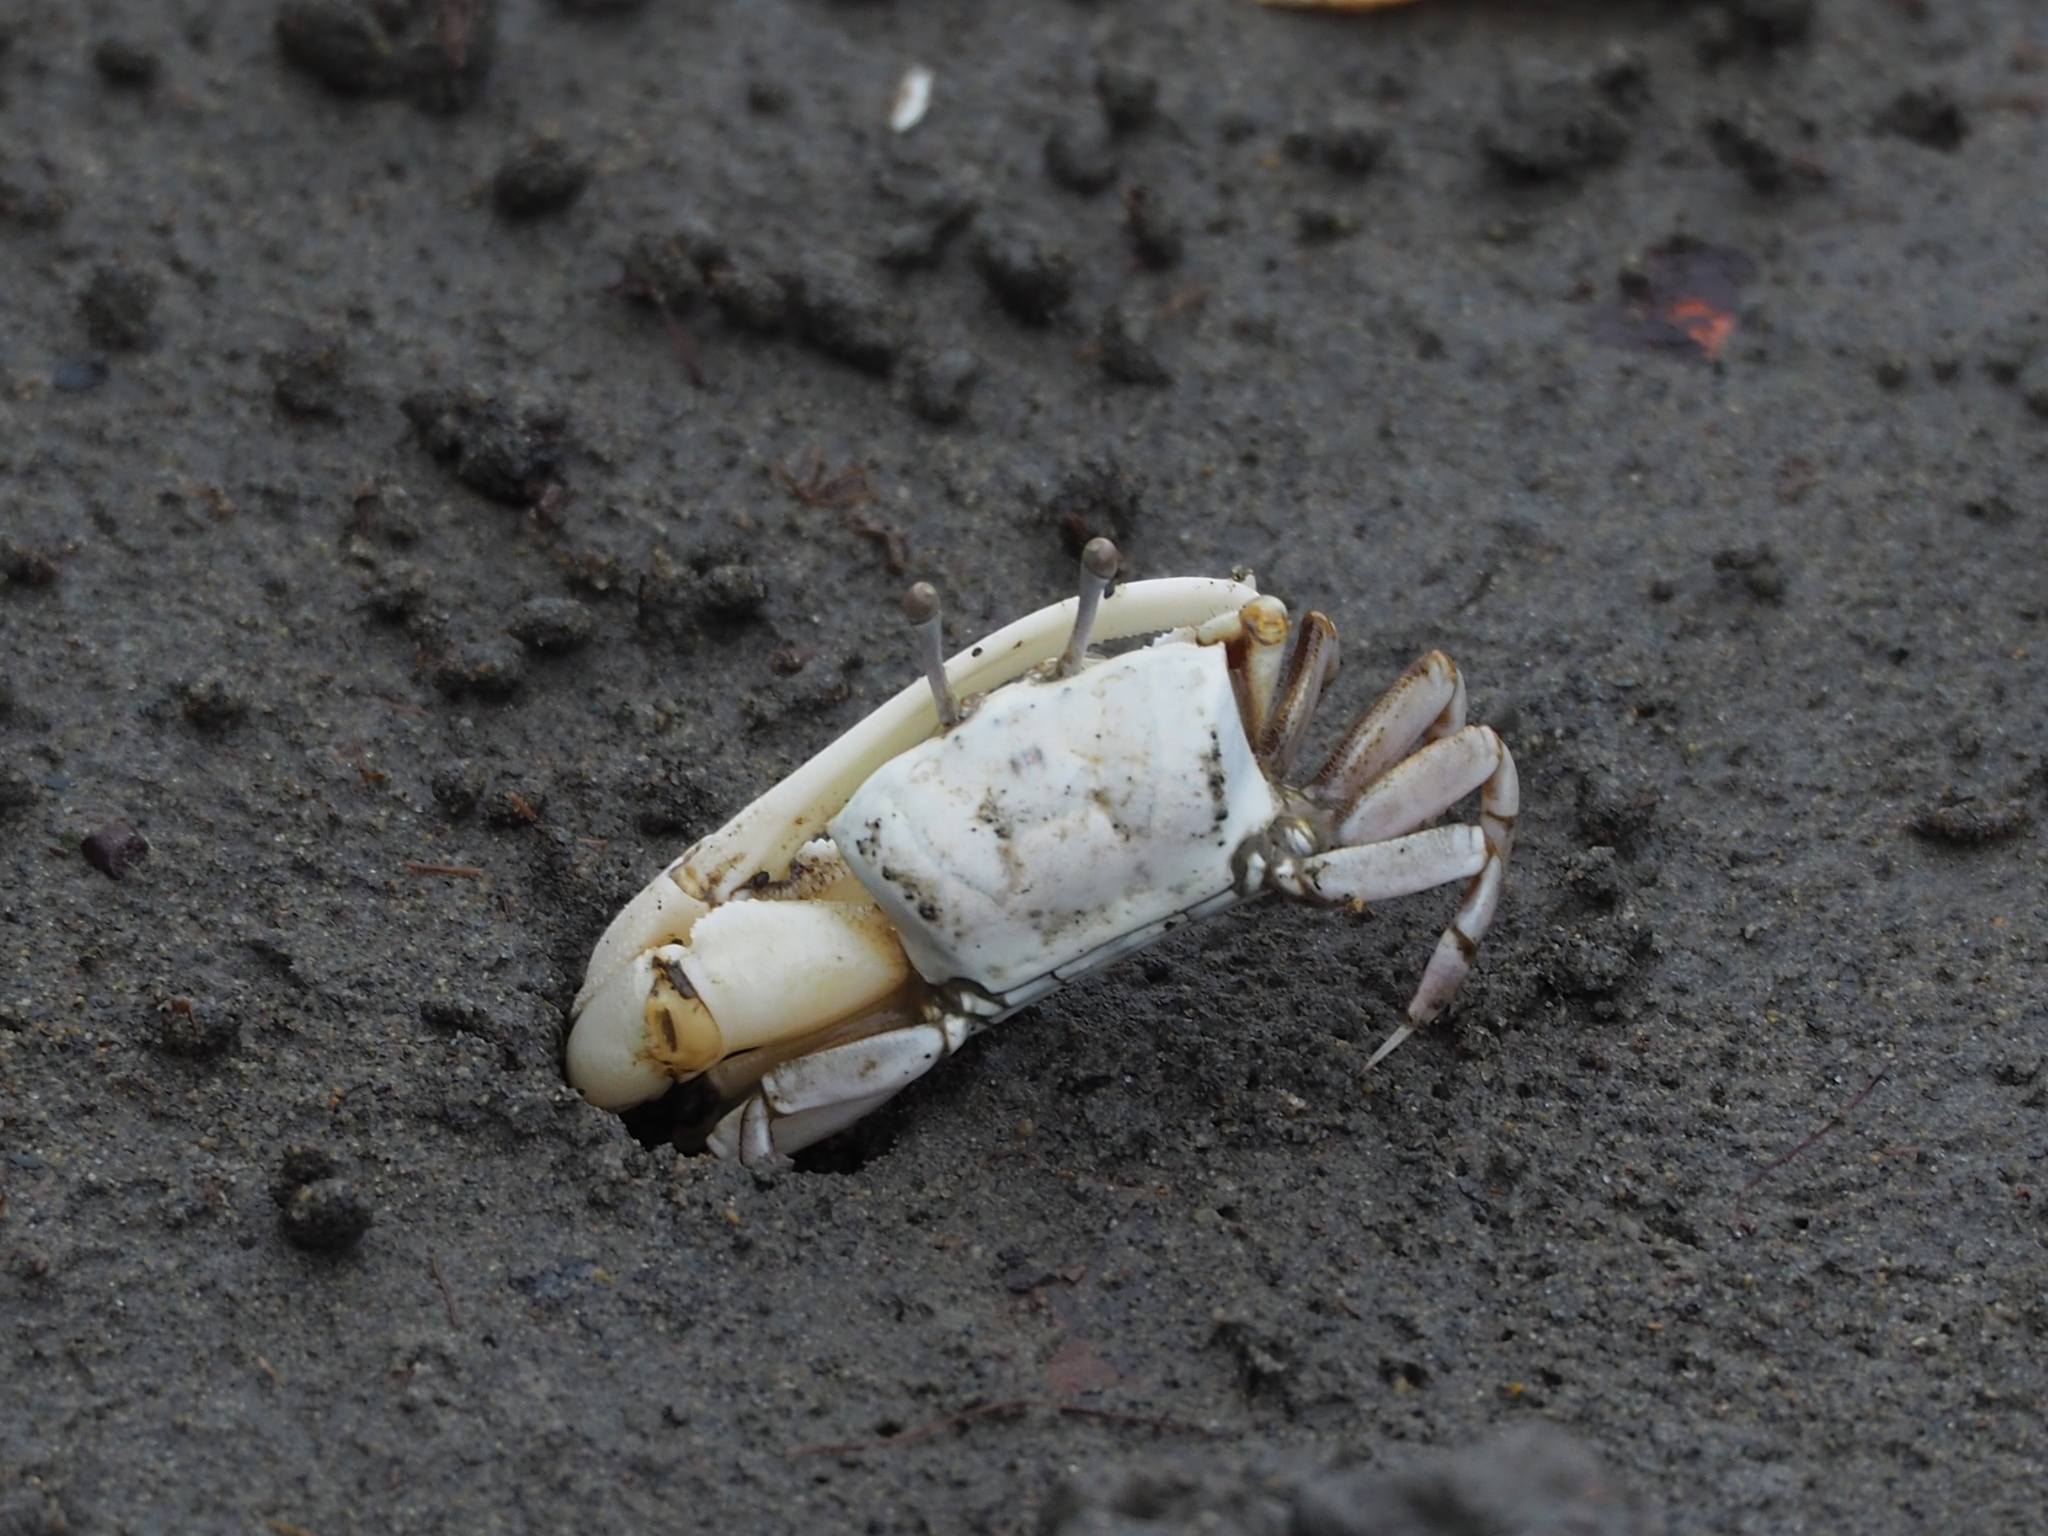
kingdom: Animalia
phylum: Arthropoda
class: Malacostraca
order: Decapoda
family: Ocypodidae
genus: Austruca
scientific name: Austruca lactea
